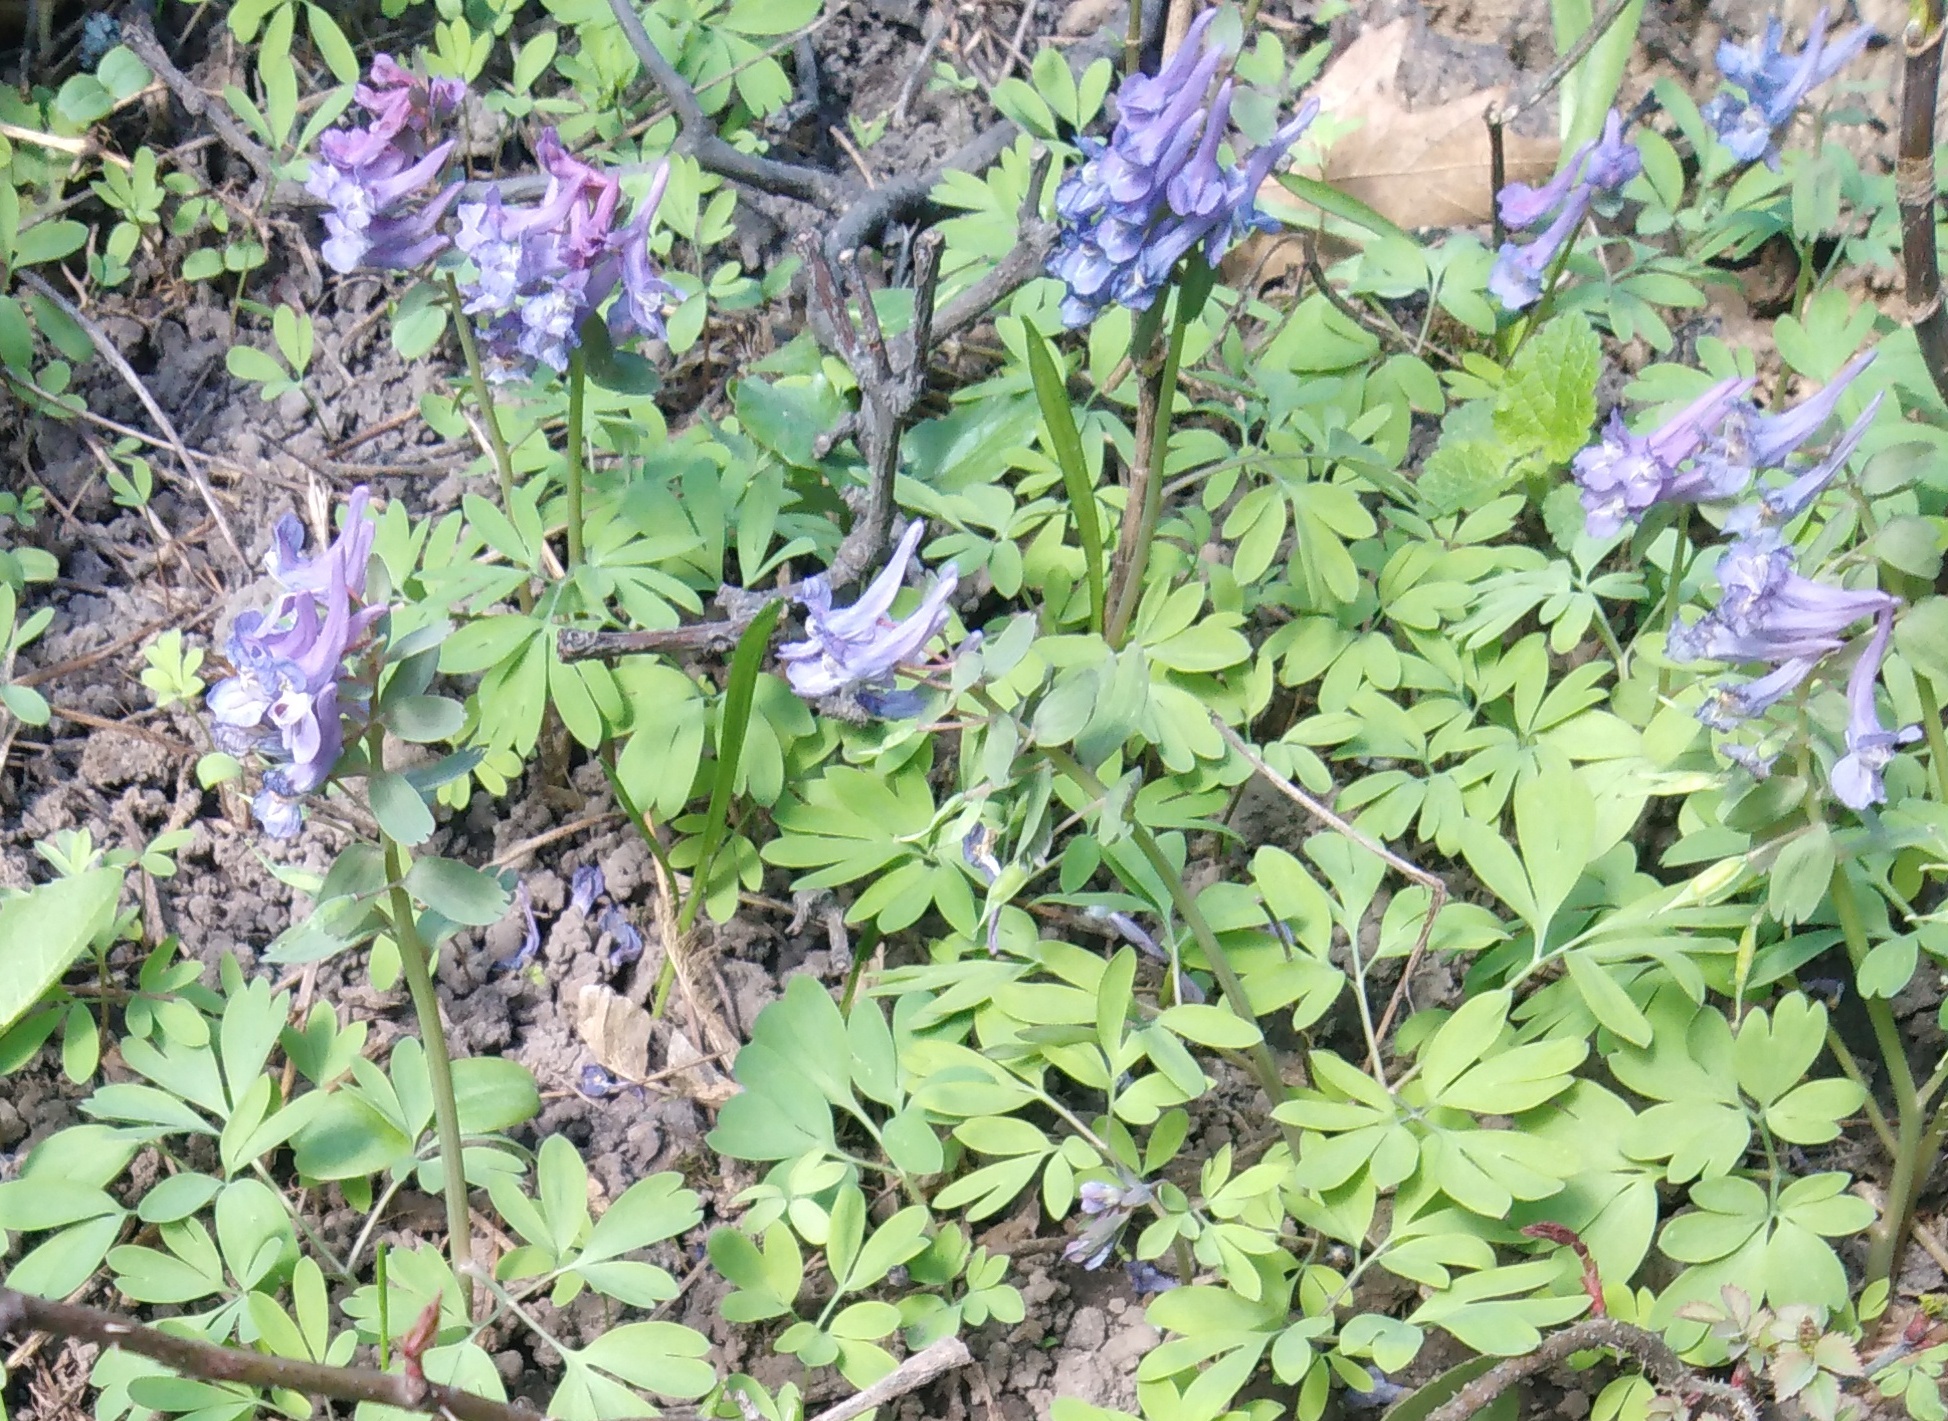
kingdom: Plantae
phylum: Tracheophyta
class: Magnoliopsida
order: Ranunculales
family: Papaveraceae
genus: Corydalis
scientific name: Corydalis solida
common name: Bird-in-a-bush
